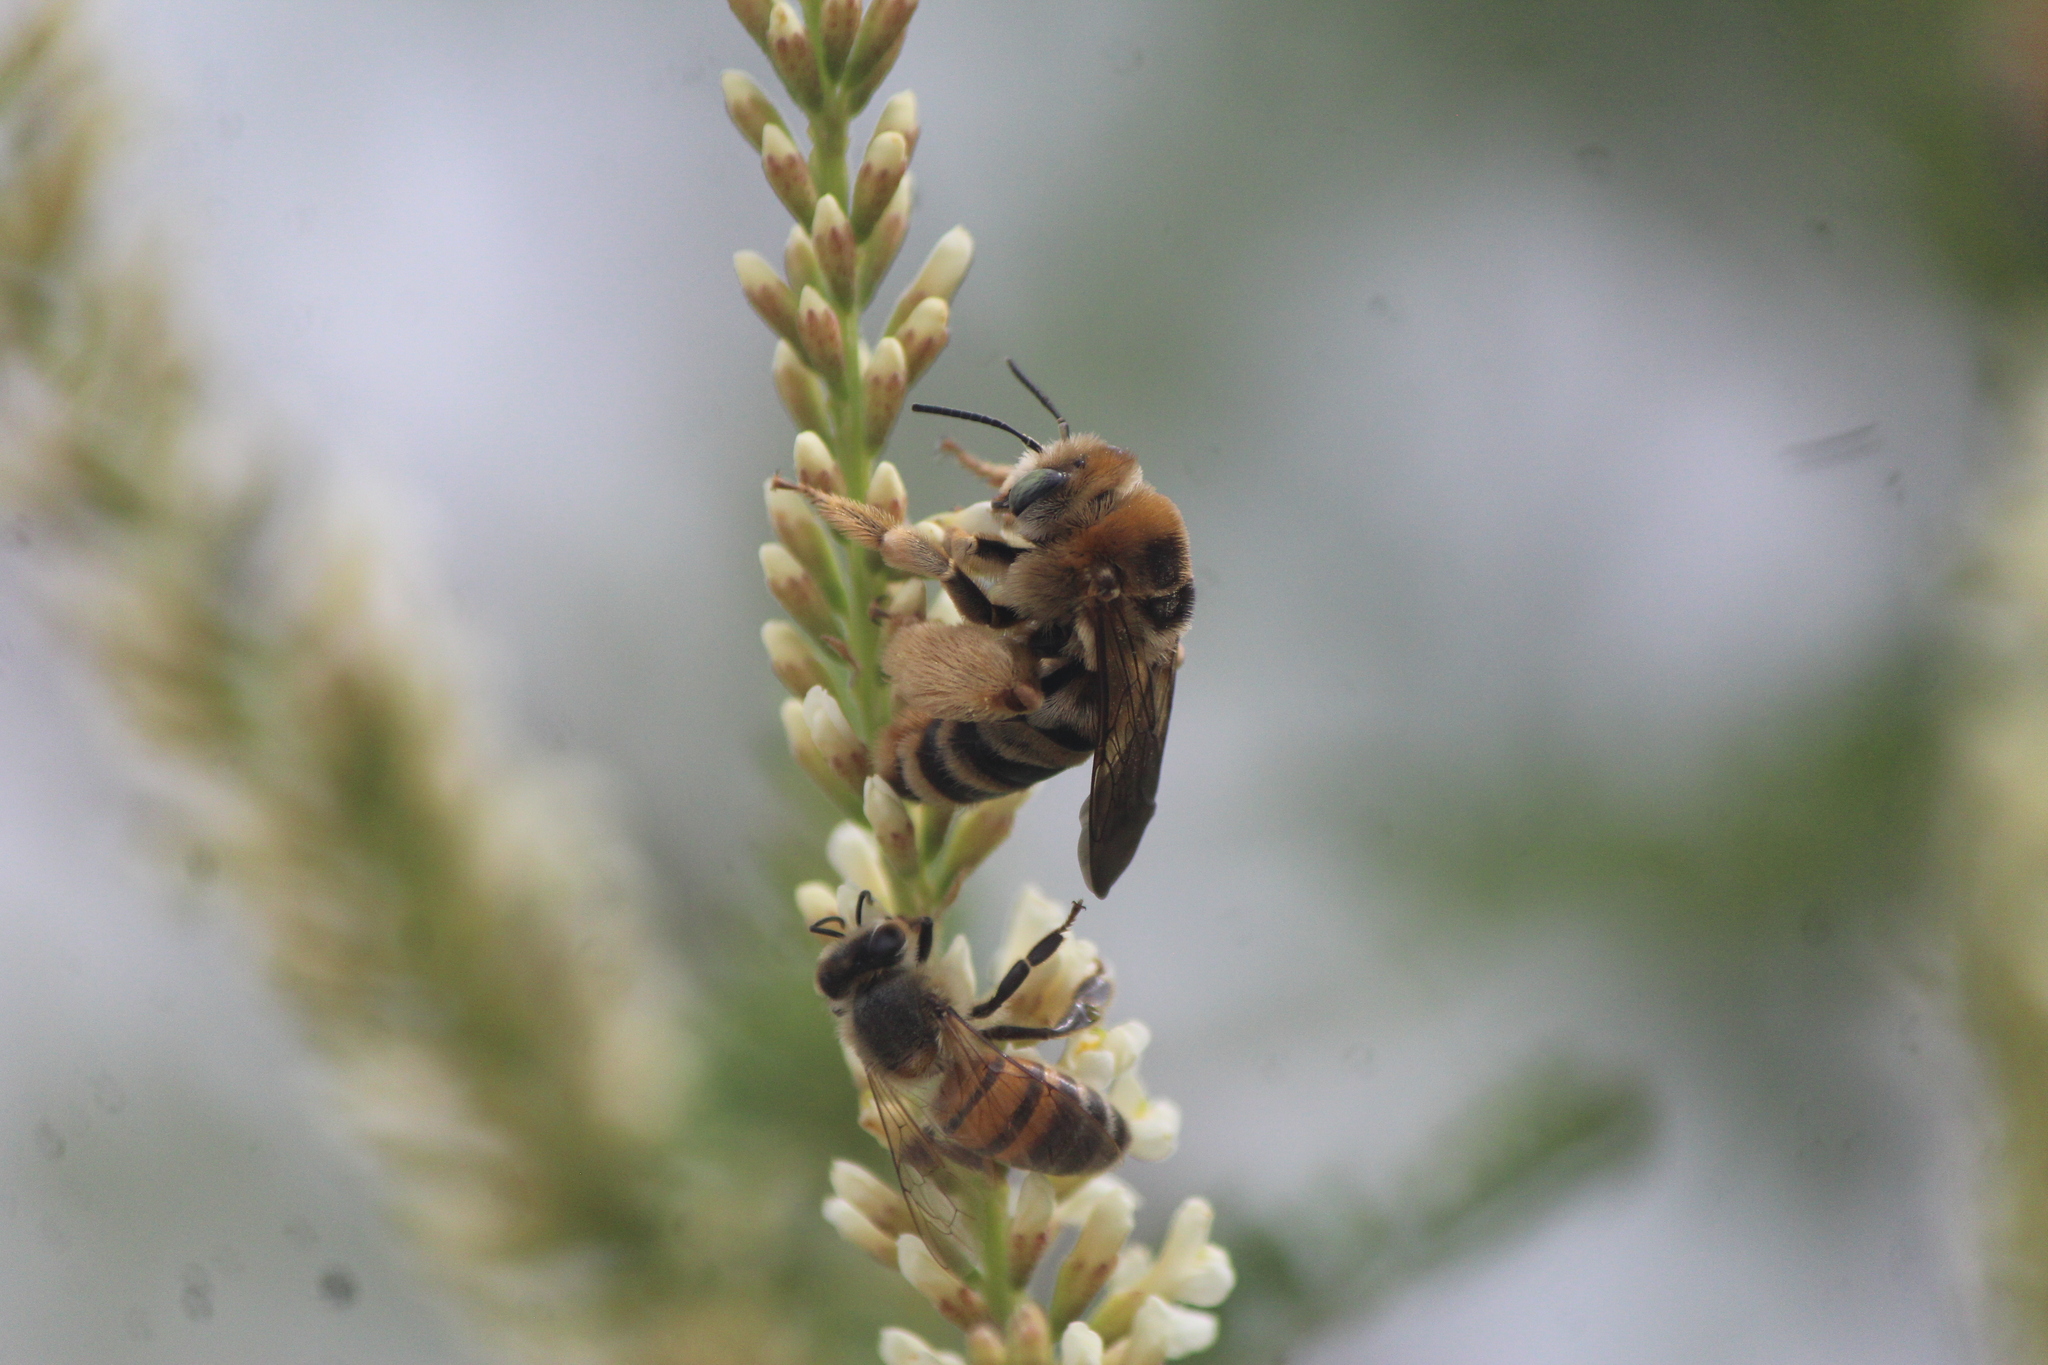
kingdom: Animalia
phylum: Arthropoda
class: Insecta
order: Hymenoptera
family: Apidae
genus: Apis
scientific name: Apis mellifera
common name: Honey bee
